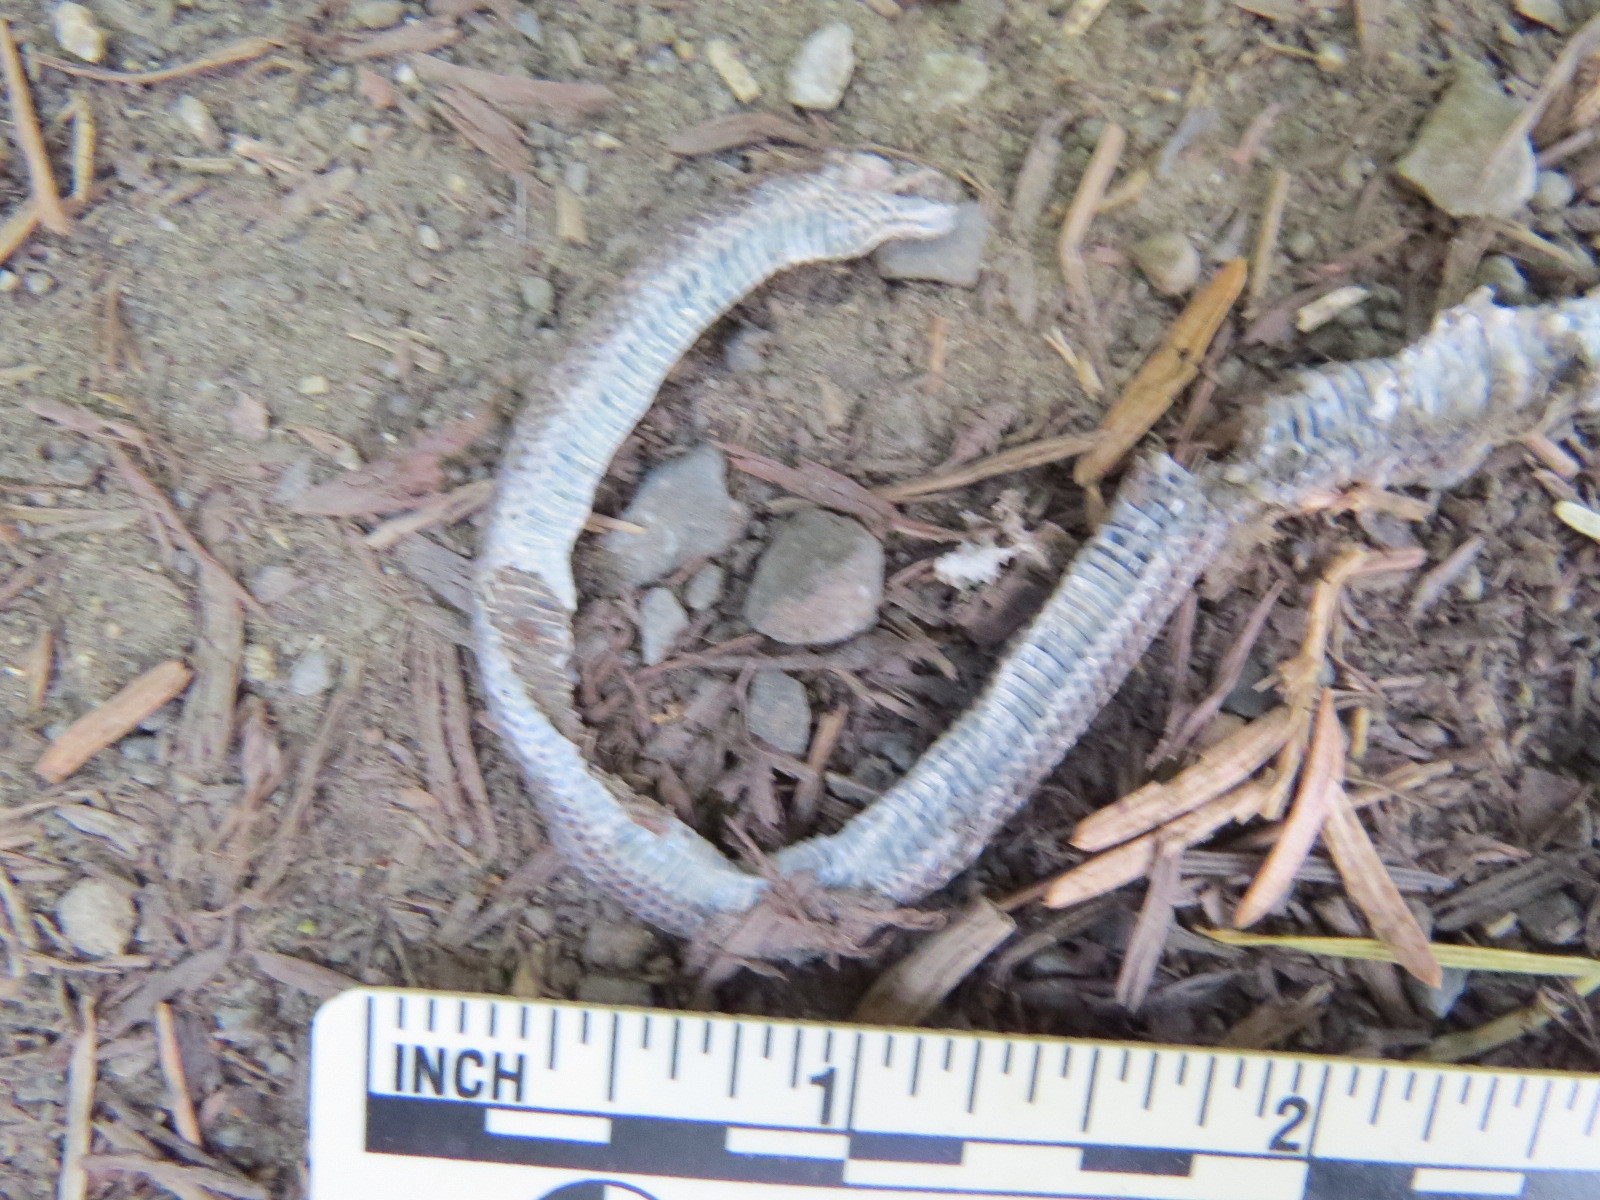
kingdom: Animalia
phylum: Chordata
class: Squamata
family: Colubridae
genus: Contia
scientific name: Contia longicaudae
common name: Forest sharp-tailed snake
